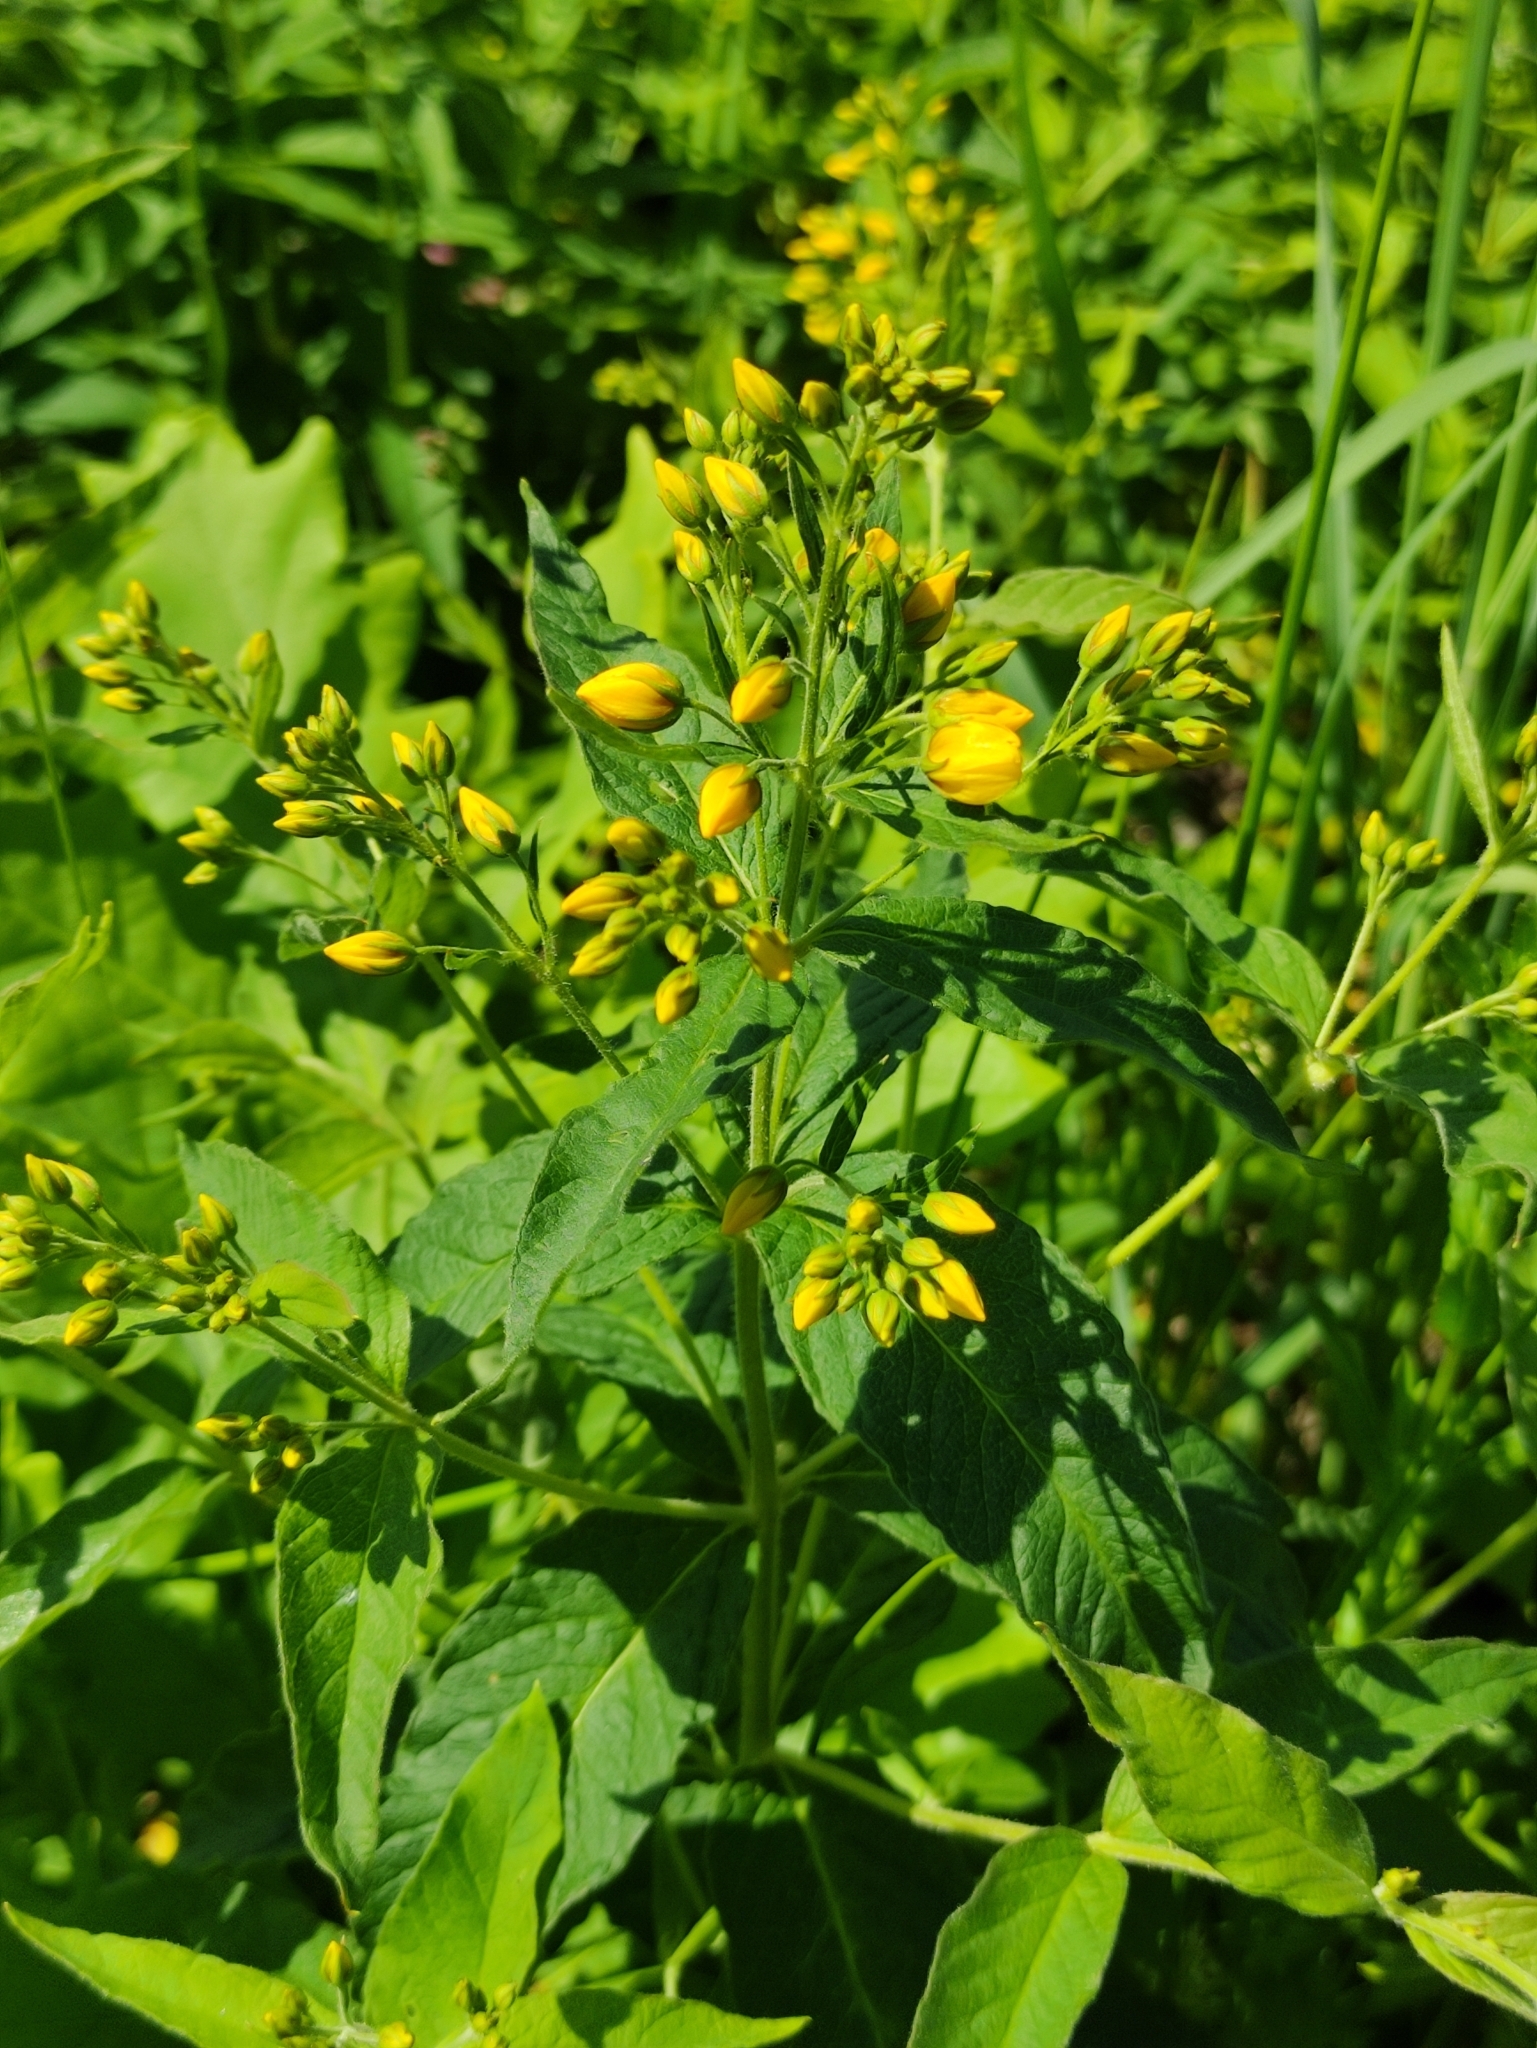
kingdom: Plantae
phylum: Tracheophyta
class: Magnoliopsida
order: Ericales
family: Primulaceae
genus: Lysimachia
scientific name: Lysimachia vulgaris
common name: Yellow loosestrife
